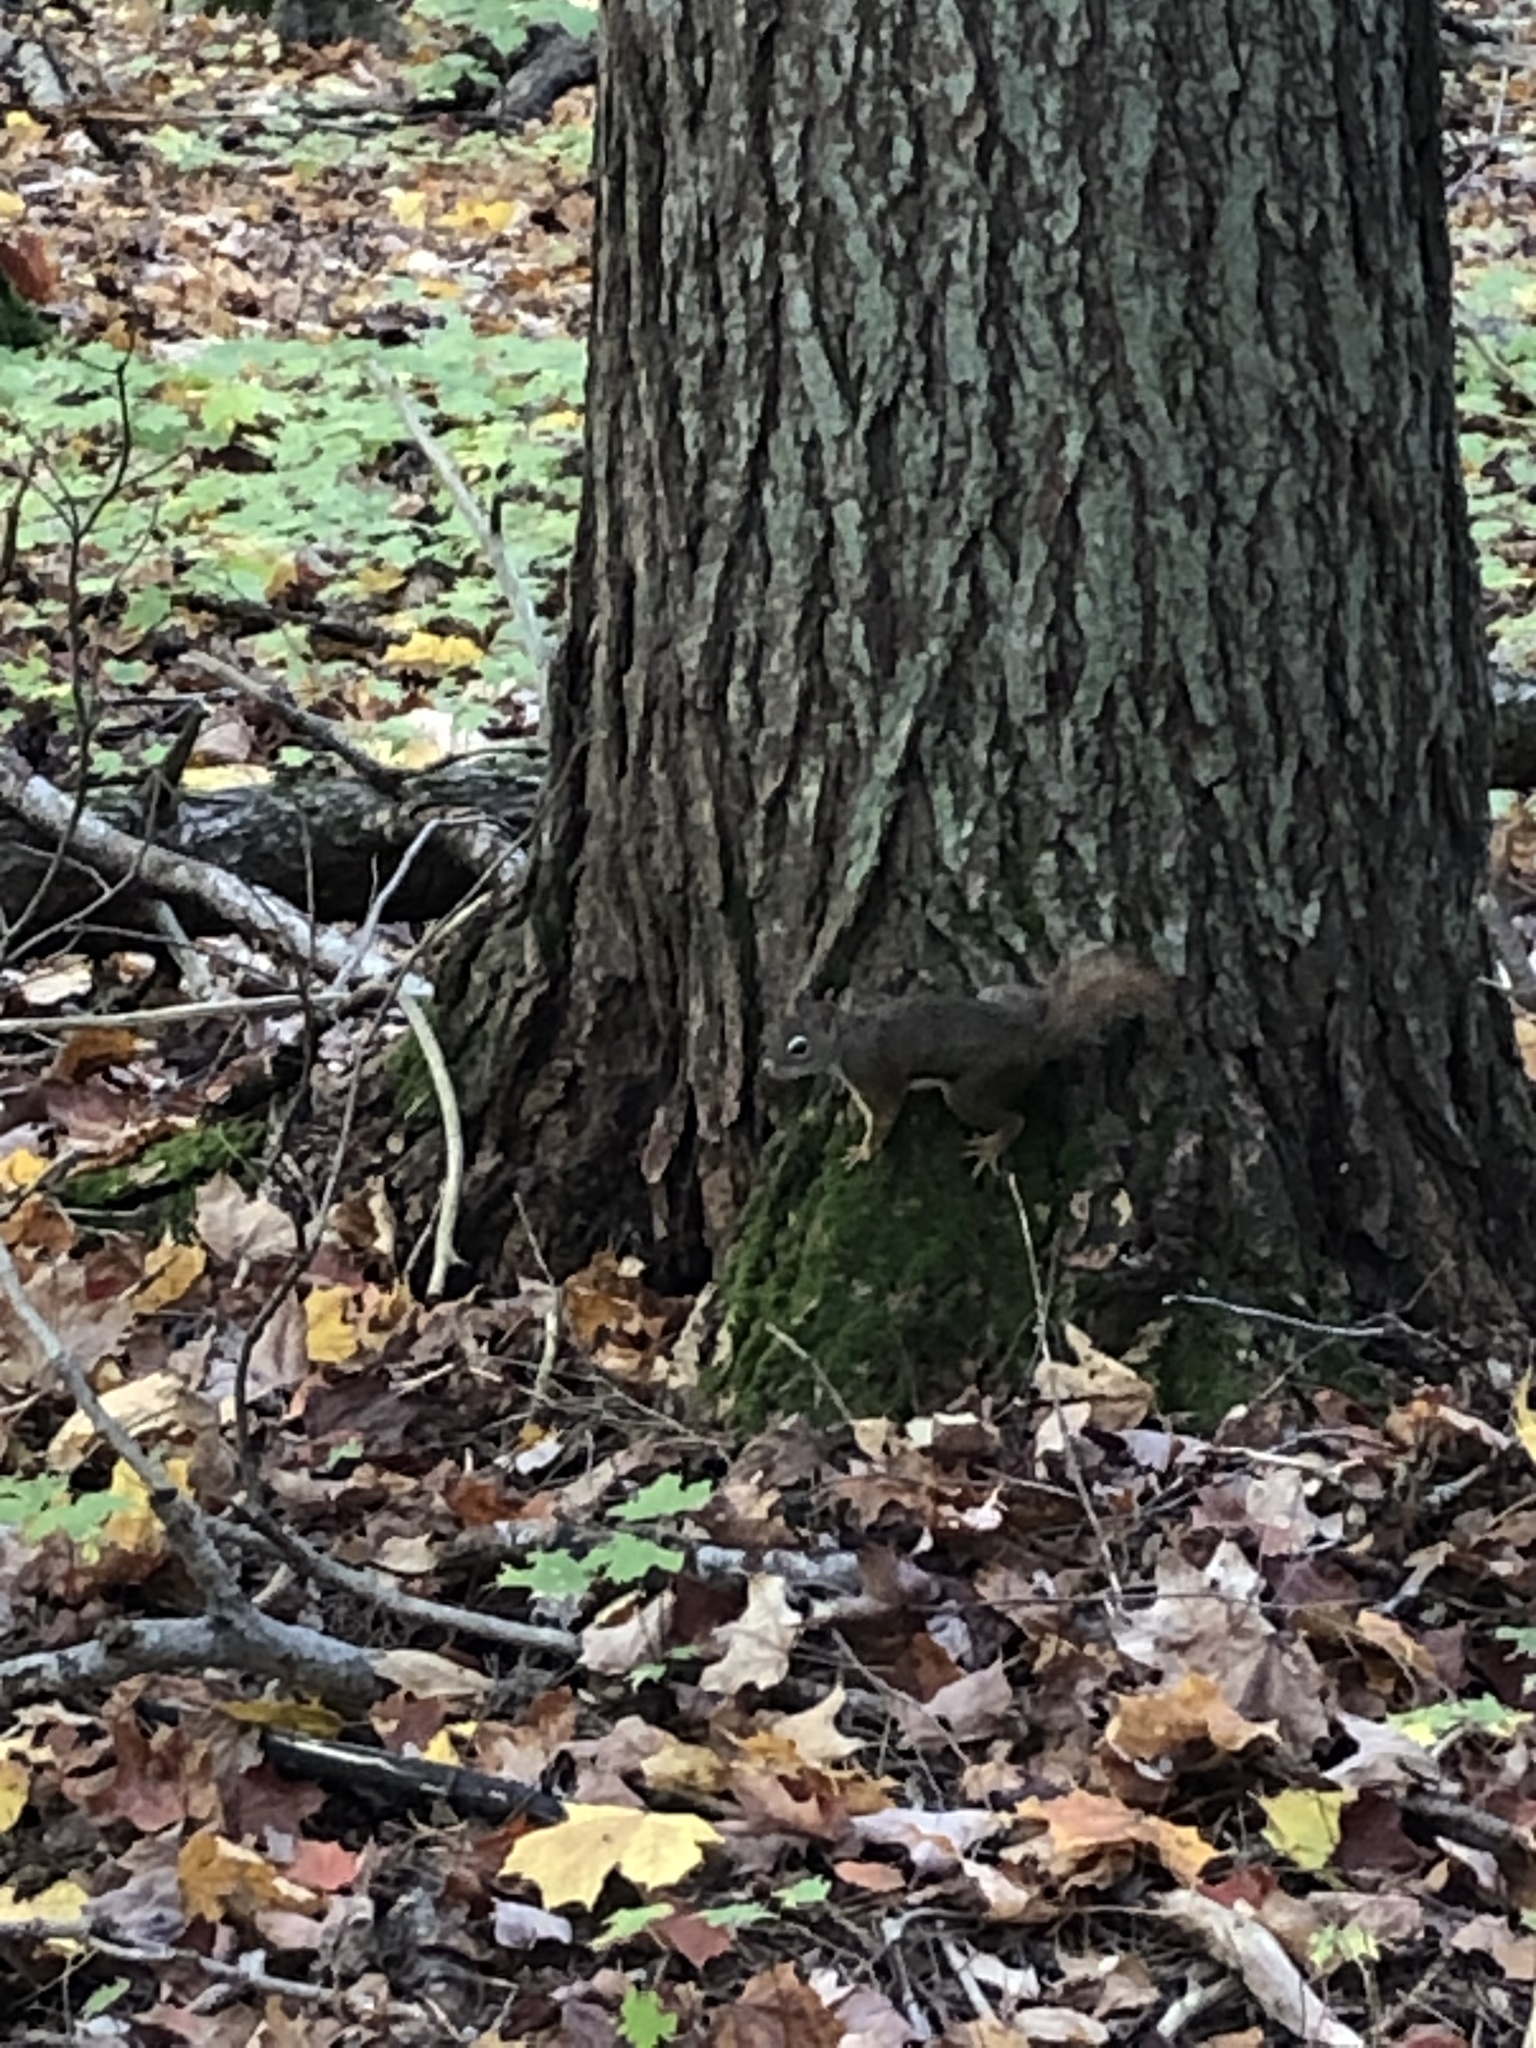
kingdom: Animalia
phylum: Chordata
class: Mammalia
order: Rodentia
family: Sciuridae
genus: Tamiasciurus
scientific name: Tamiasciurus hudsonicus
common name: Red squirrel
